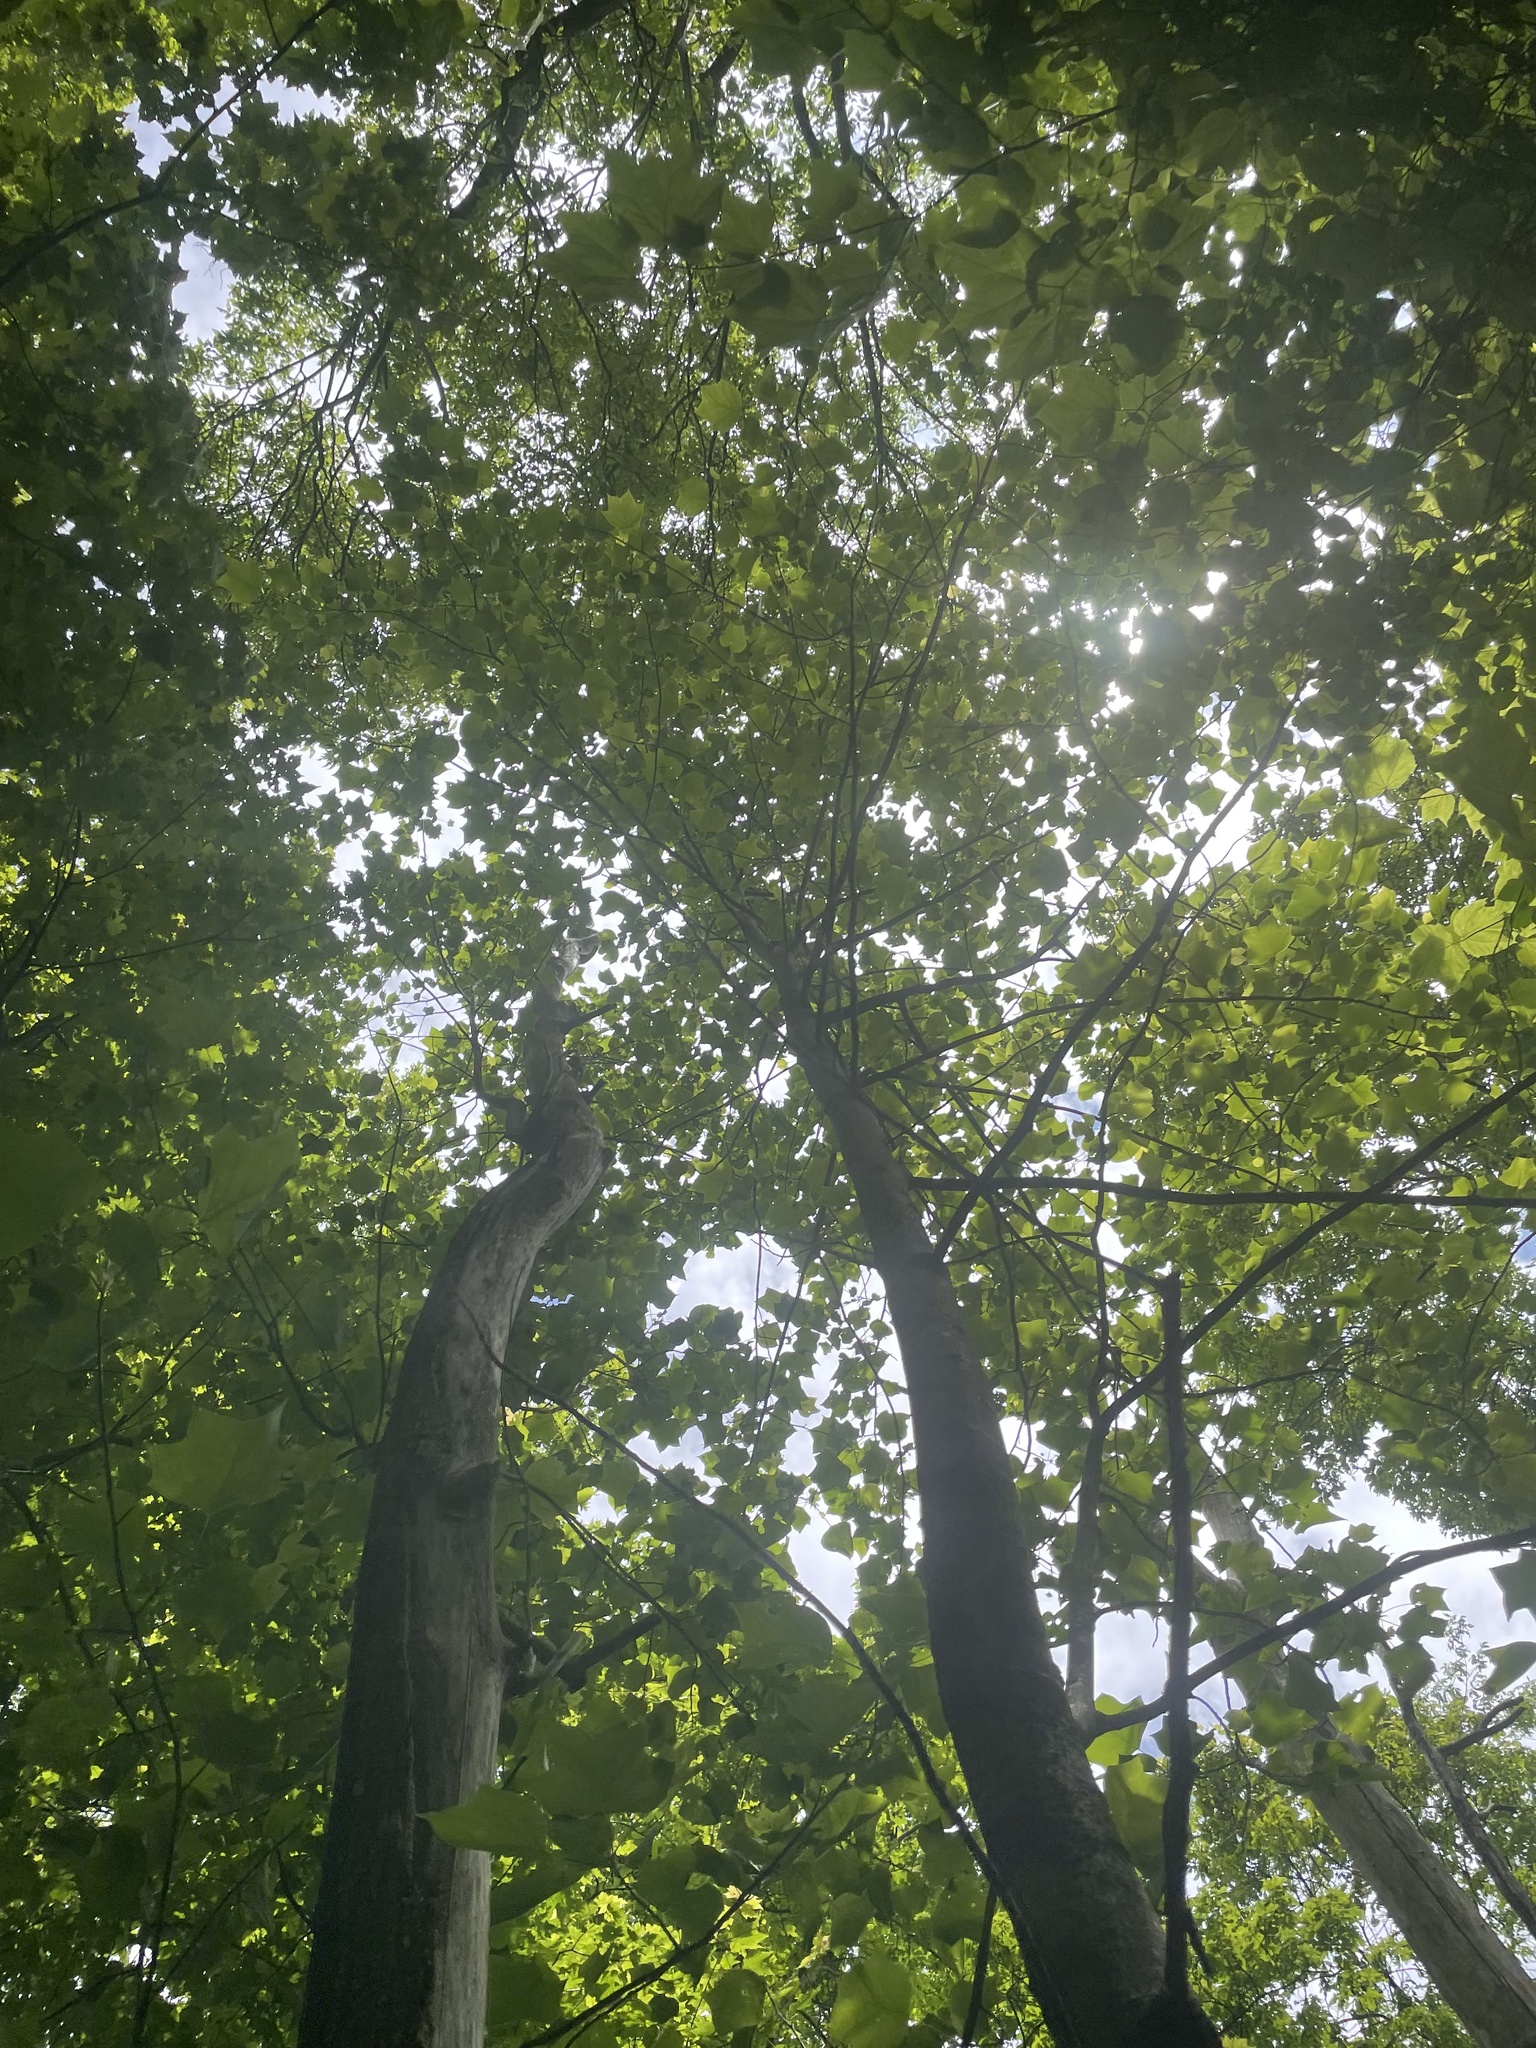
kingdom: Plantae
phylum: Tracheophyta
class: Magnoliopsida
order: Magnoliales
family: Magnoliaceae
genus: Liriodendron
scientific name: Liriodendron tulipifera
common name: Tulip tree
